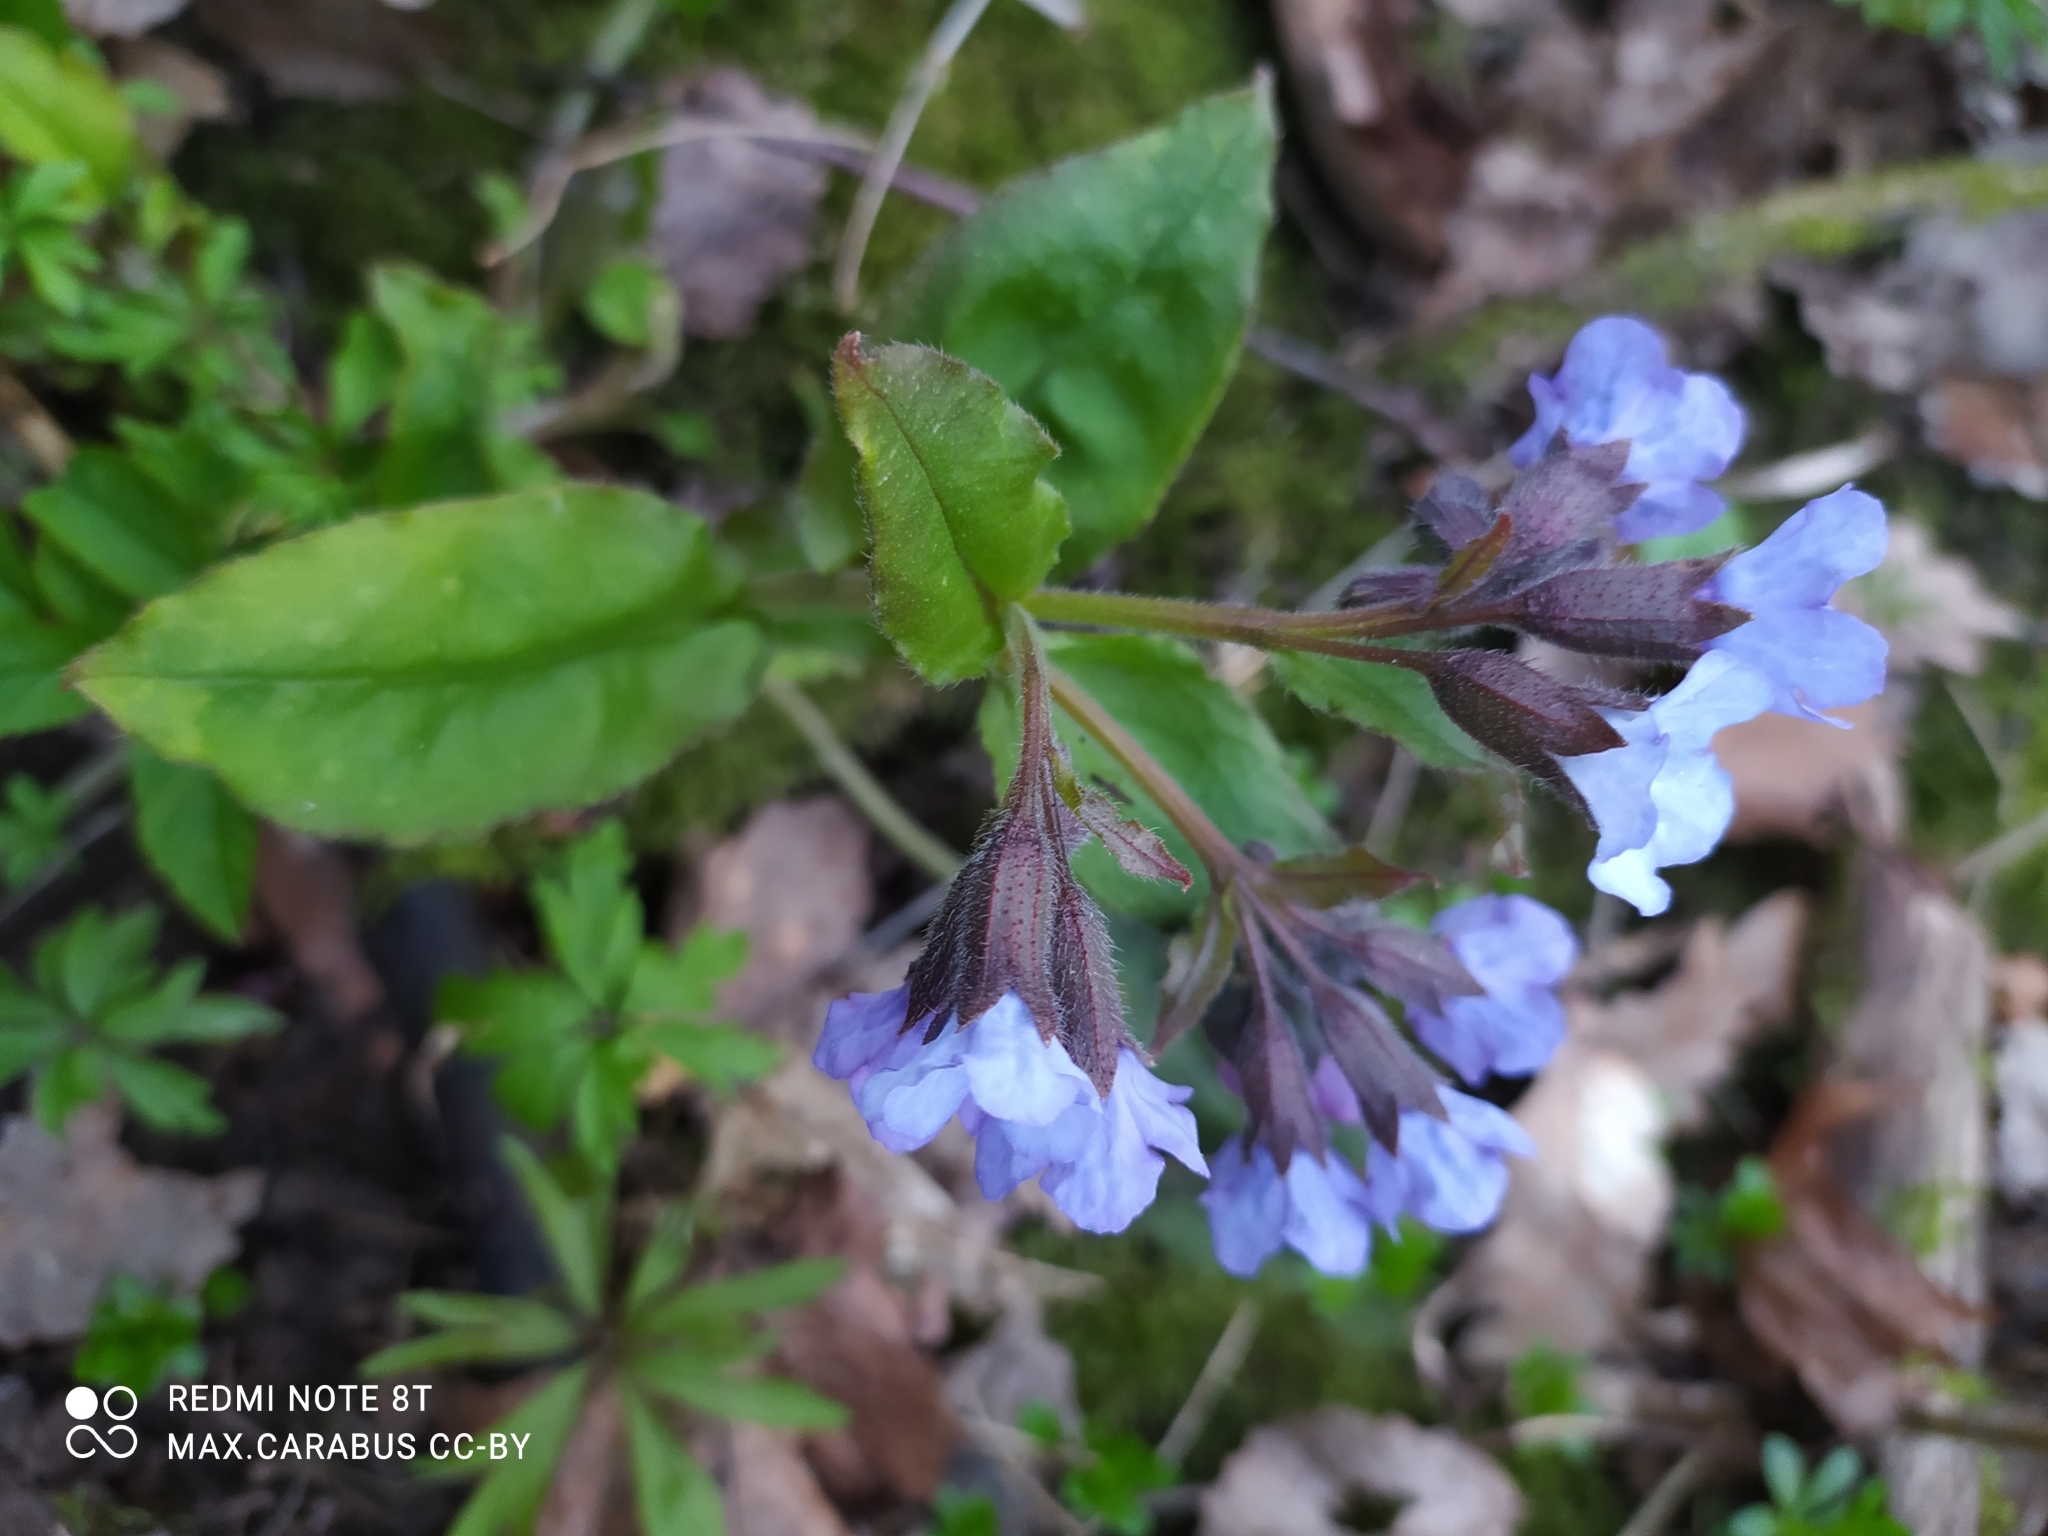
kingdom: Plantae
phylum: Tracheophyta
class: Magnoliopsida
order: Boraginales
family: Boraginaceae
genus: Pulmonaria
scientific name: Pulmonaria obscura
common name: Suffolk lungwort
